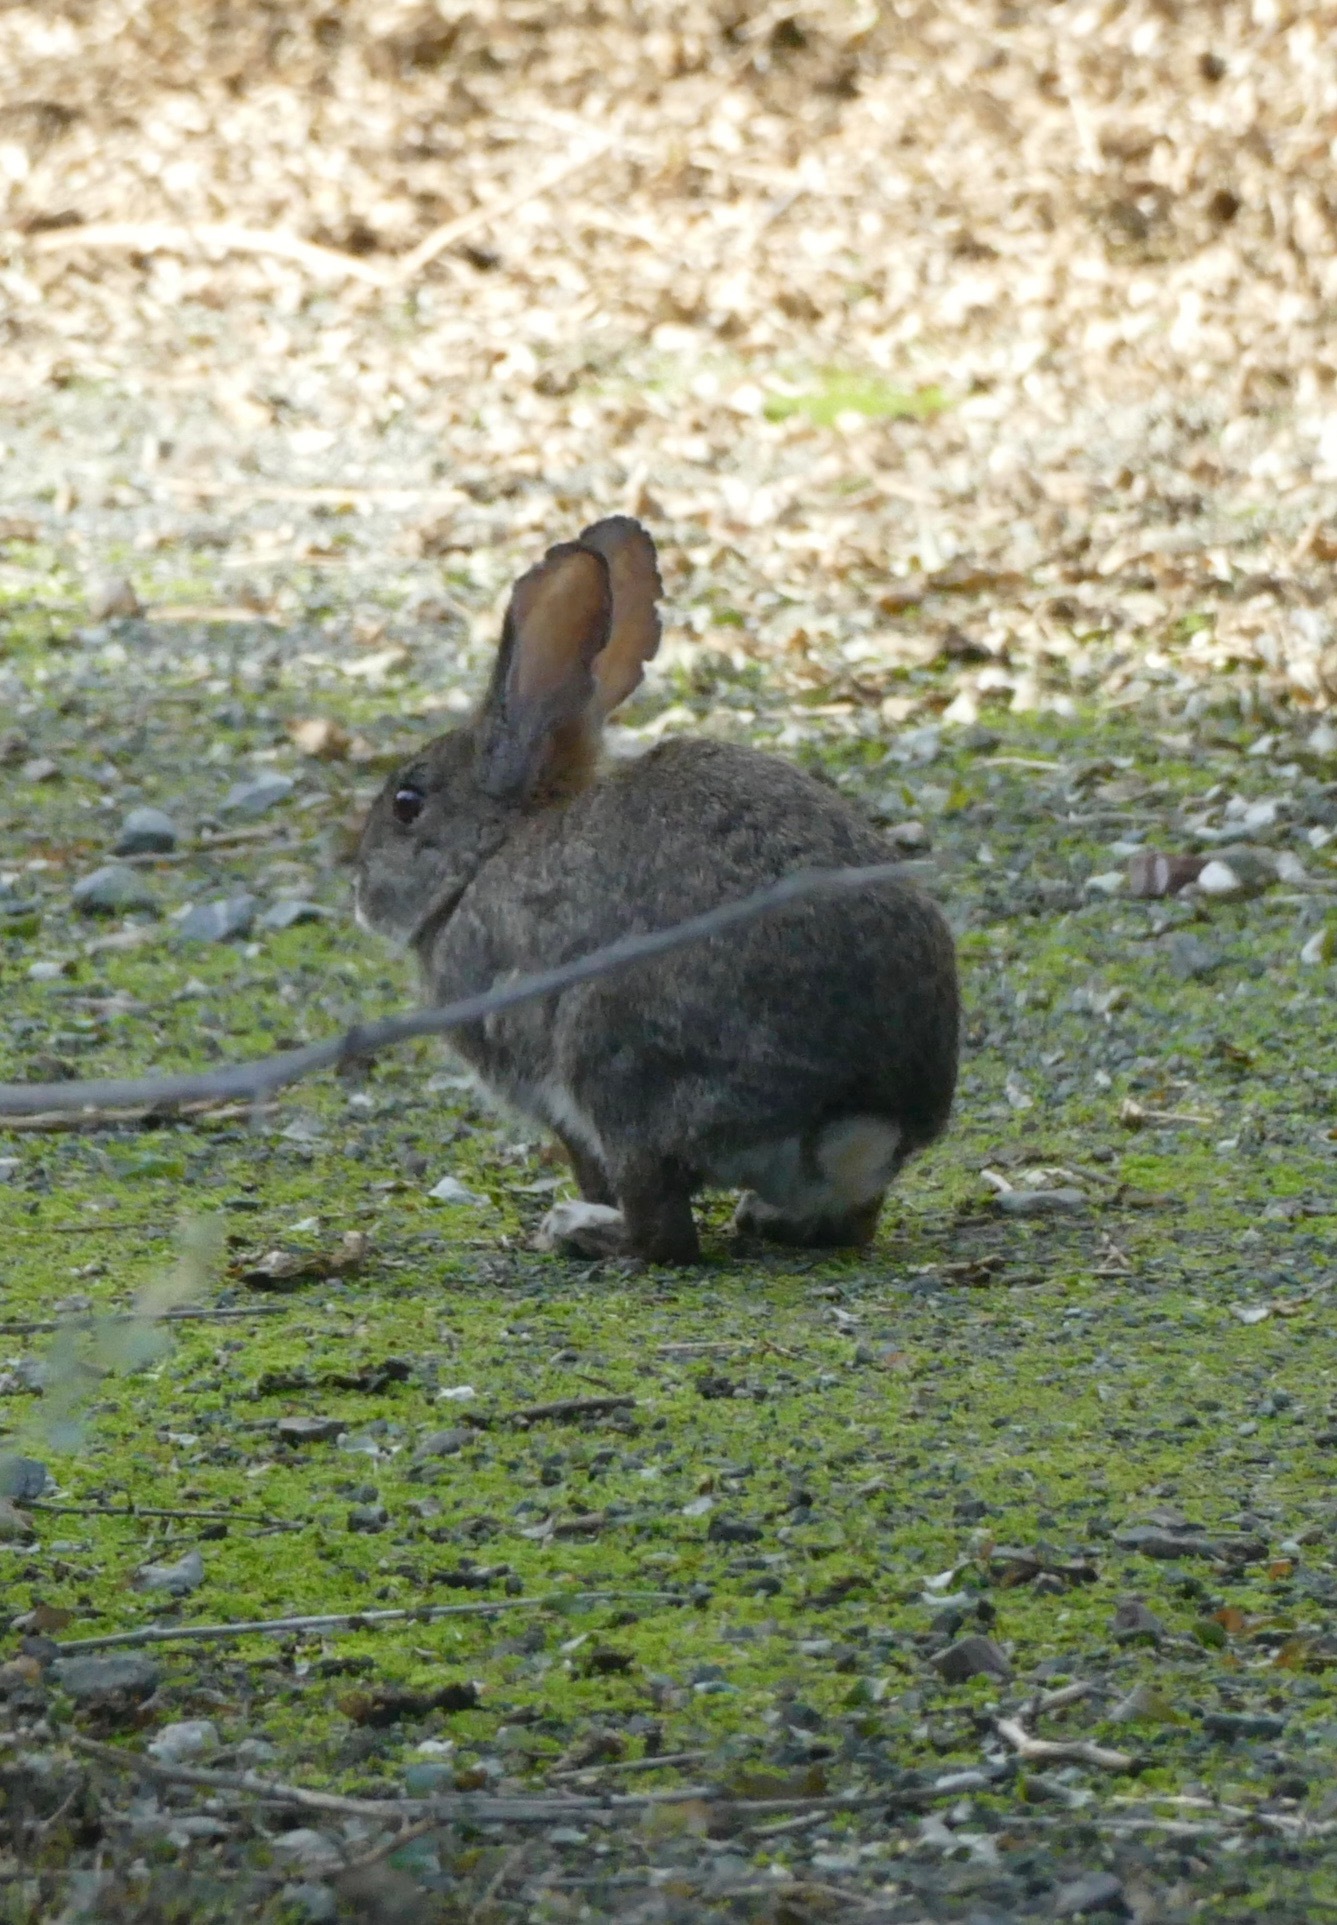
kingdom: Animalia
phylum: Chordata
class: Mammalia
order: Lagomorpha
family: Leporidae
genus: Sylvilagus
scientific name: Sylvilagus bachmani
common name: Brush rabbit
